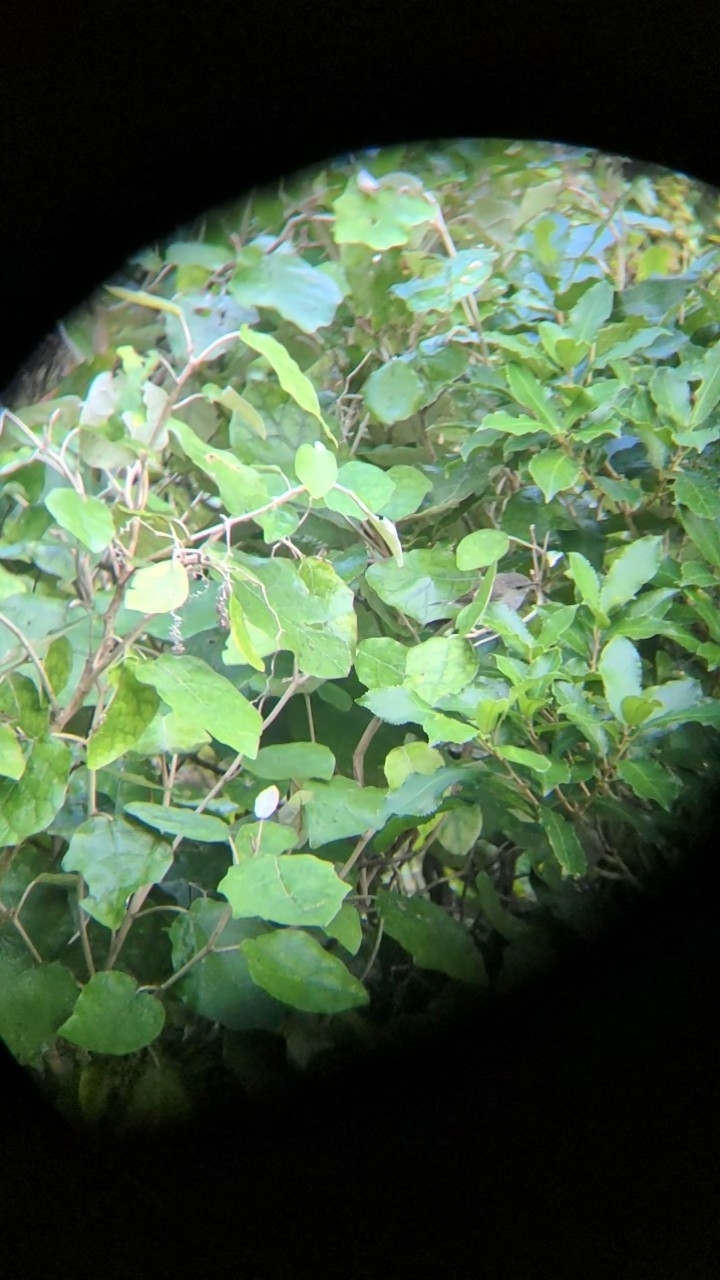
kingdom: Animalia
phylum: Chordata
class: Aves
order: Passeriformes
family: Acanthizidae
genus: Gerygone
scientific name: Gerygone igata
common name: Grey gerygone
